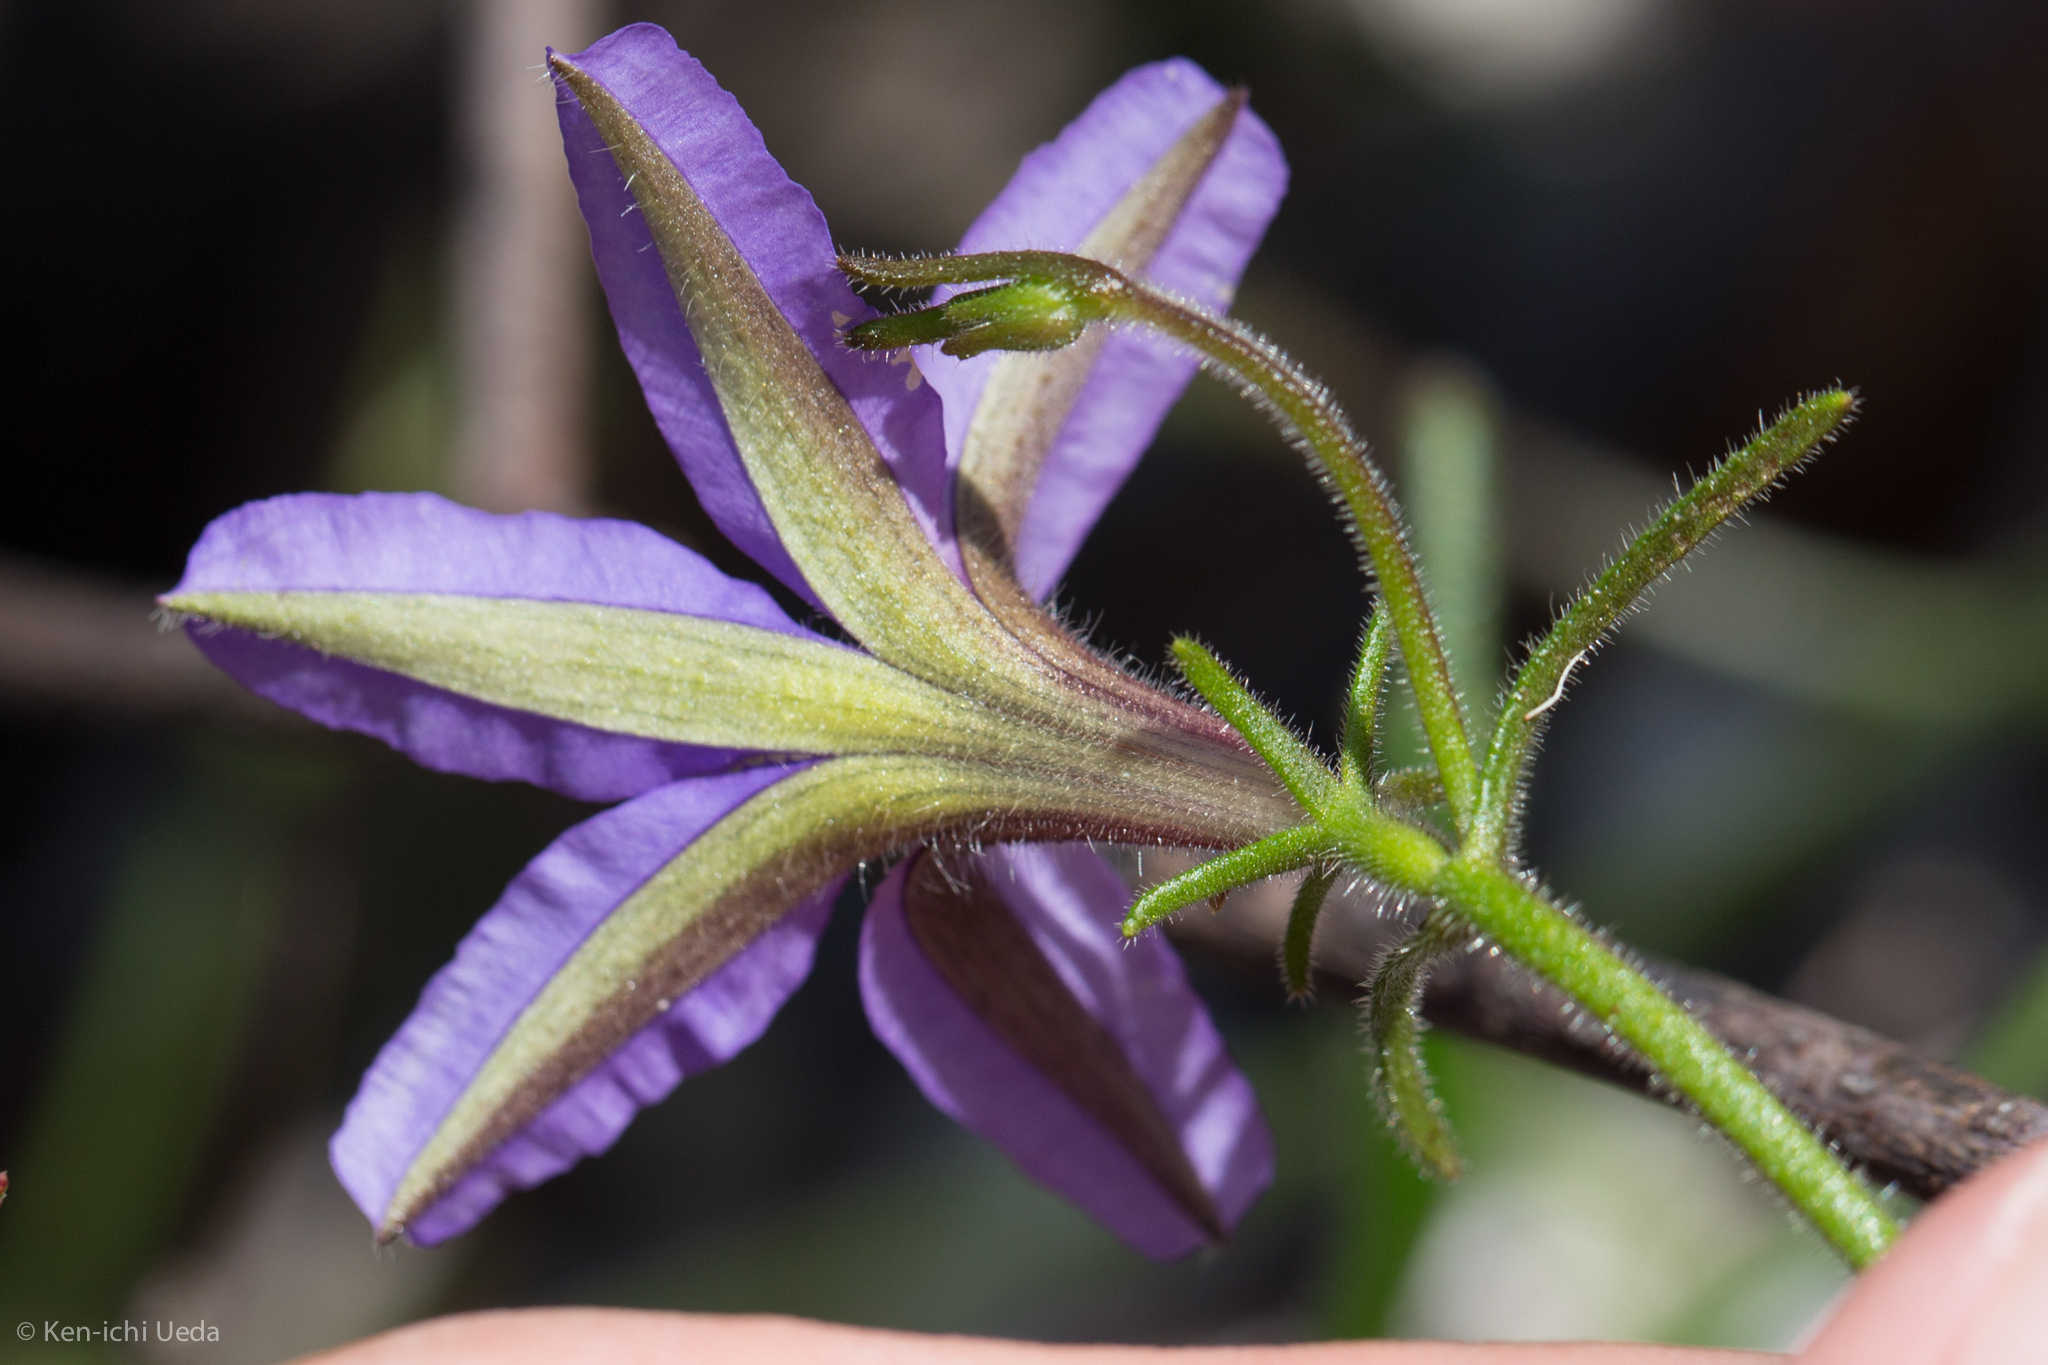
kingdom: Plantae
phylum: Tracheophyta
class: Magnoliopsida
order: Asterales
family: Goodeniaceae
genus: Scaevola
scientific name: Scaevola ramosissima
